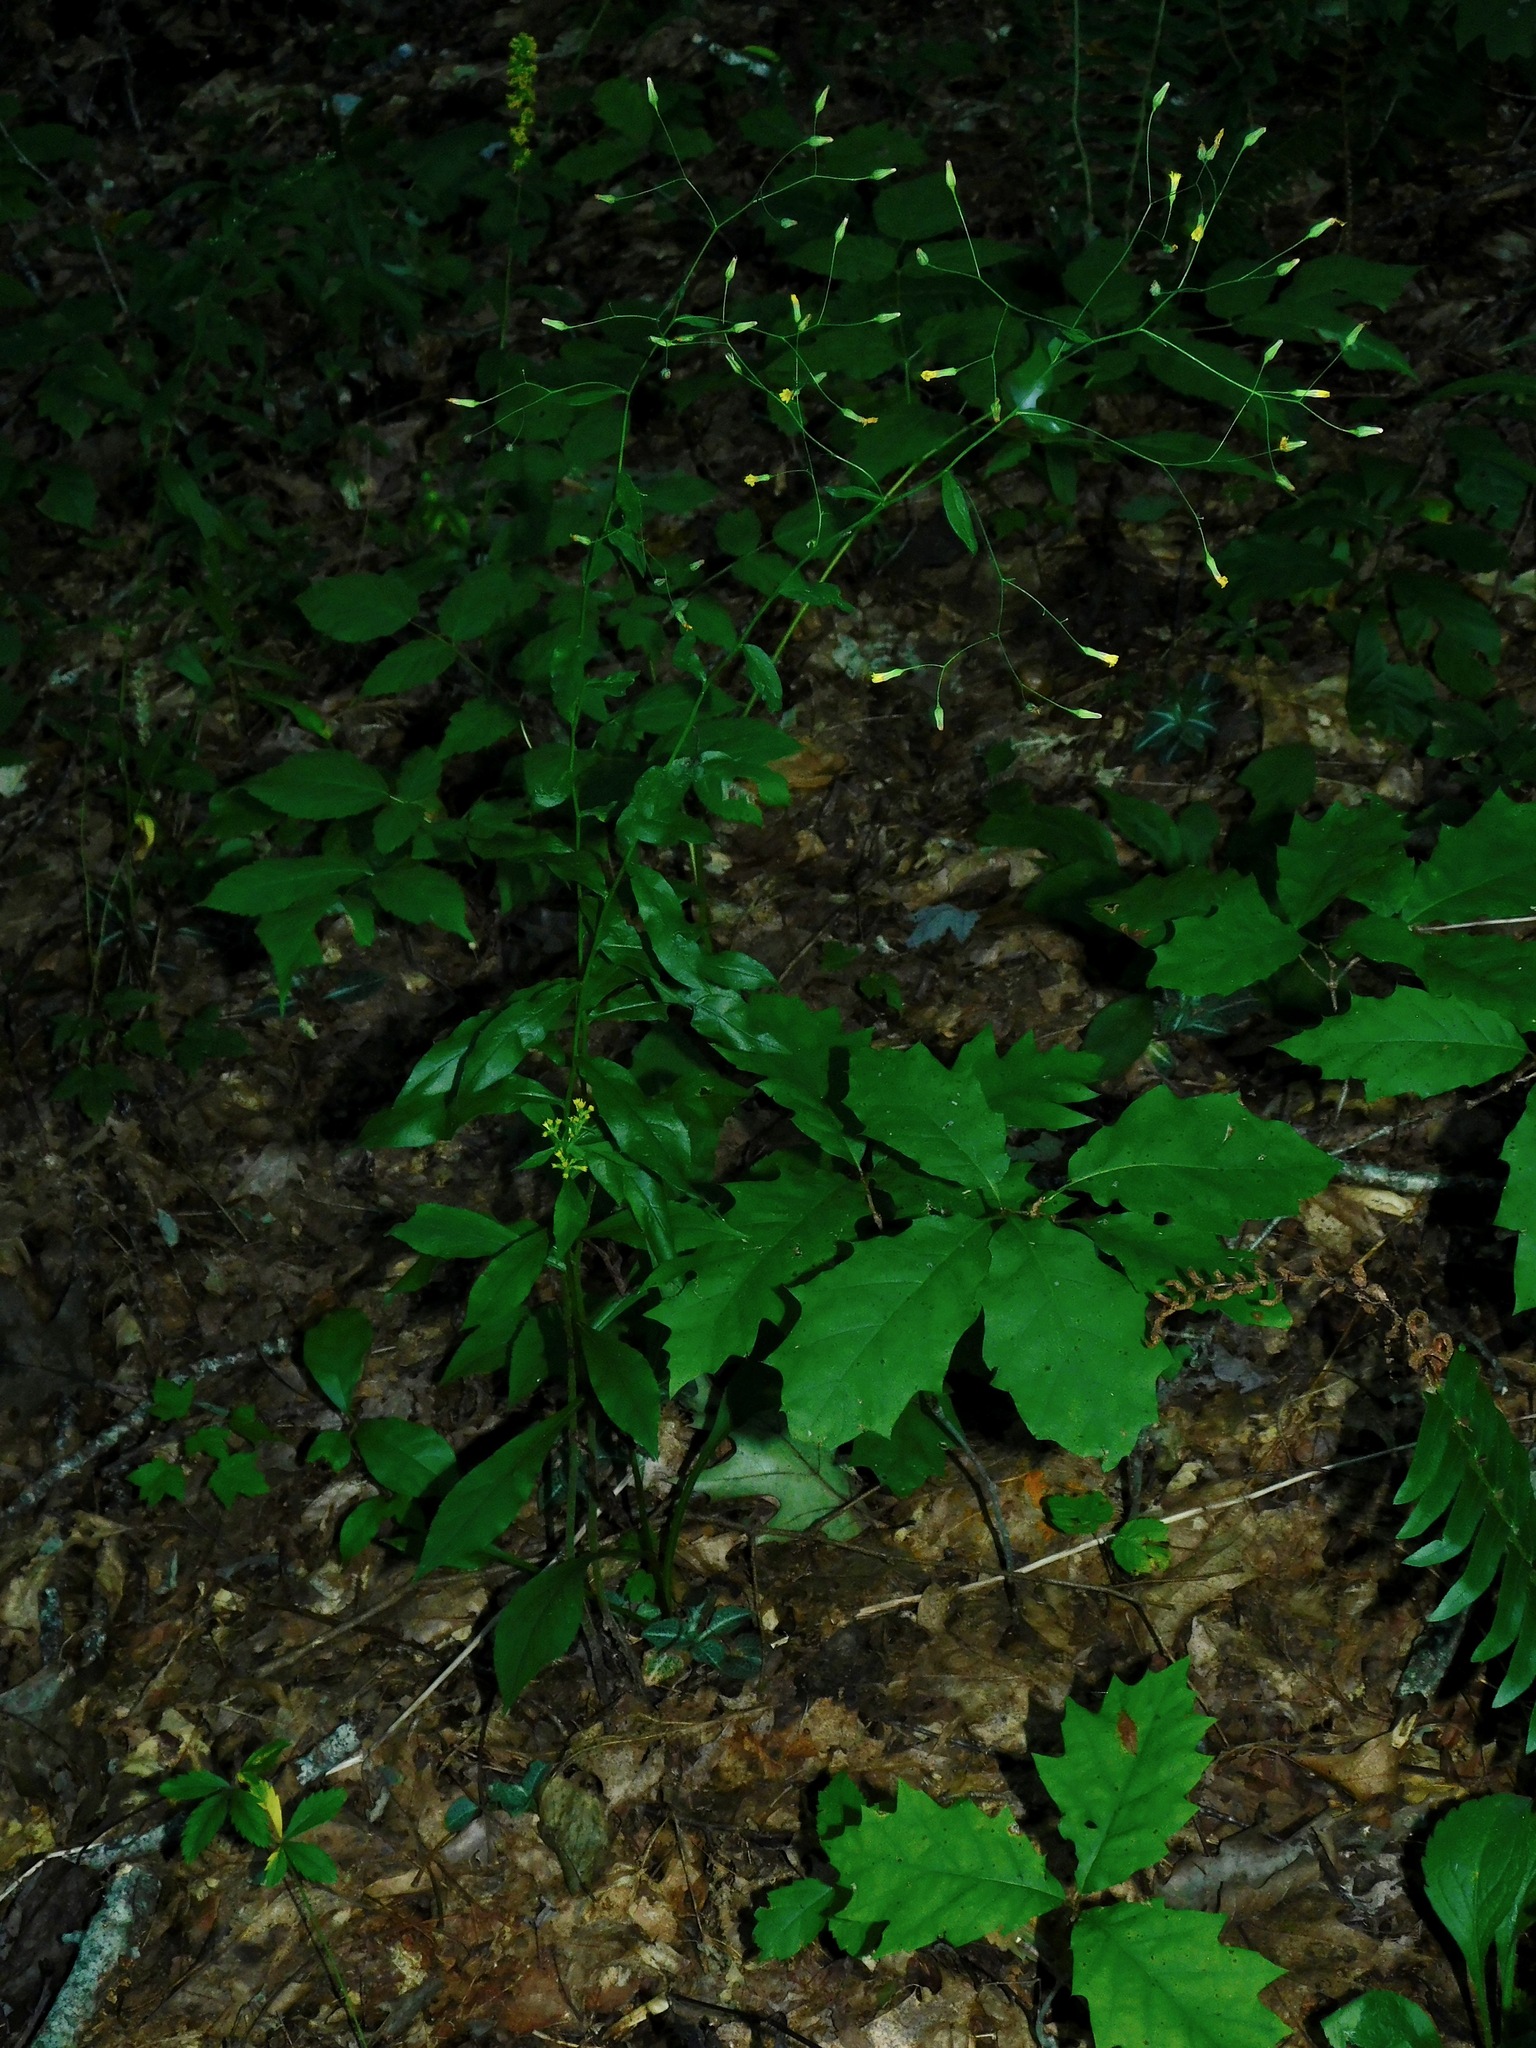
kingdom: Plantae
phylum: Tracheophyta
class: Magnoliopsida
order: Asterales
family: Asteraceae
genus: Hieracium
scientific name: Hieracium paniculatum
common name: Allegheny hawkweed
